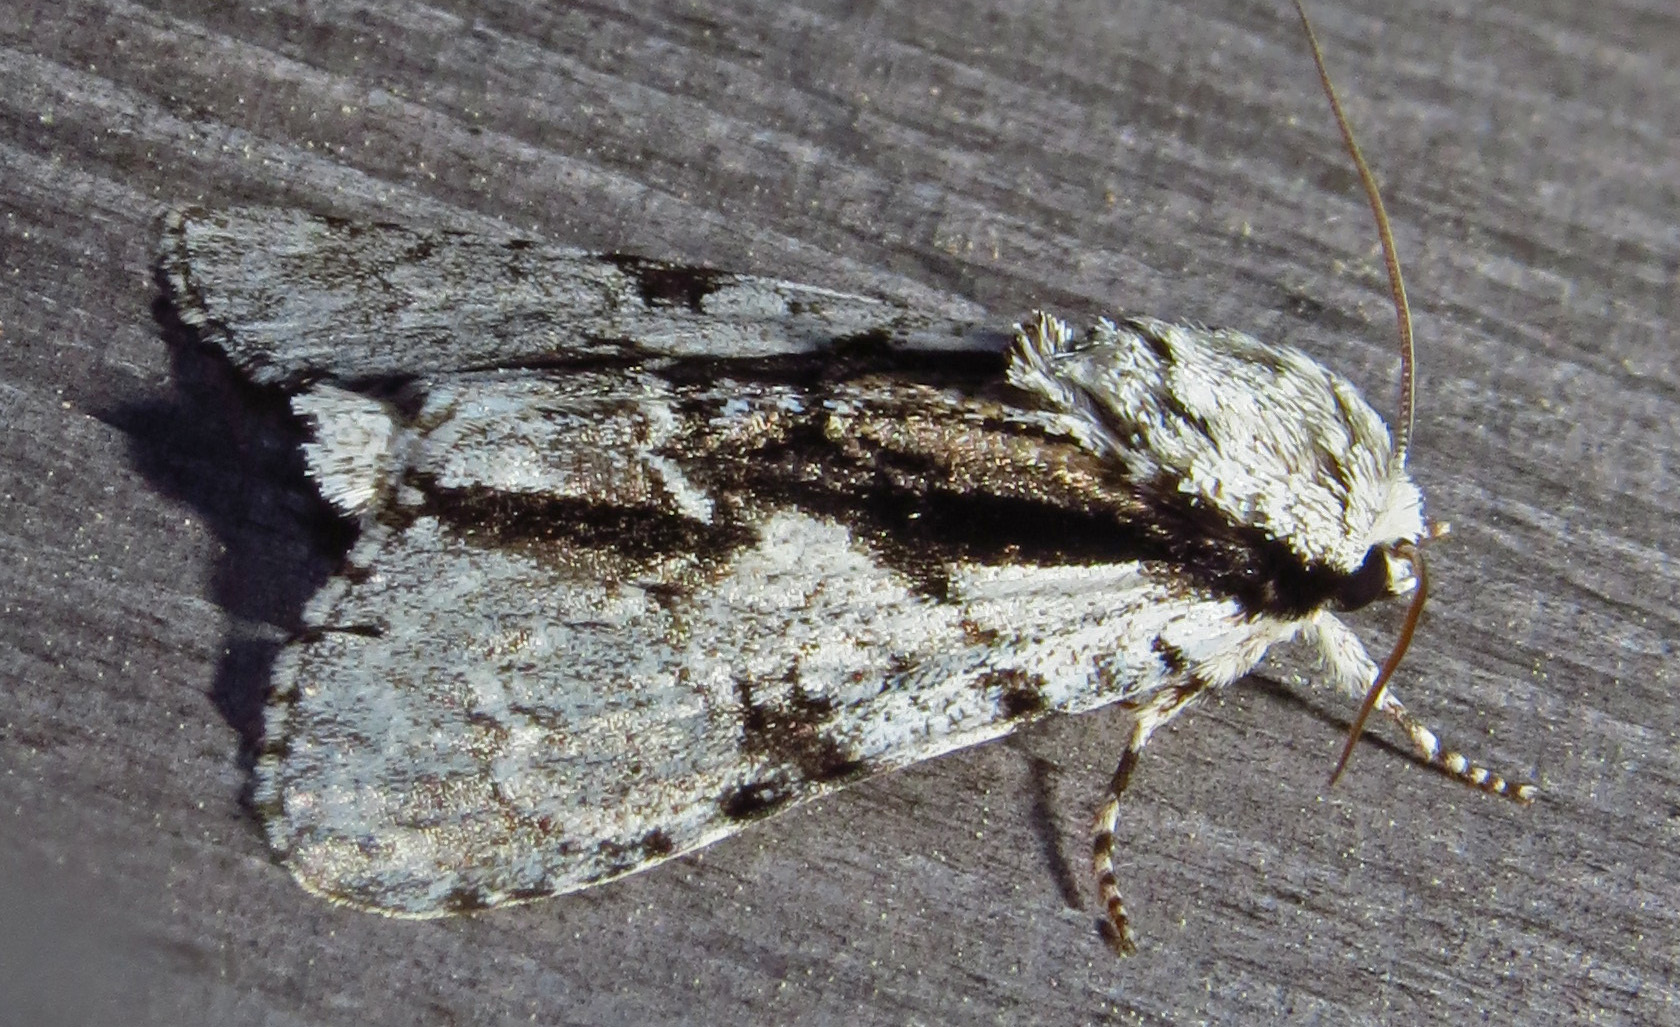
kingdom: Animalia
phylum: Arthropoda
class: Insecta
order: Lepidoptera
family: Noctuidae
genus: Acronicta
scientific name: Acronicta funeralis
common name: Funerary dagger
